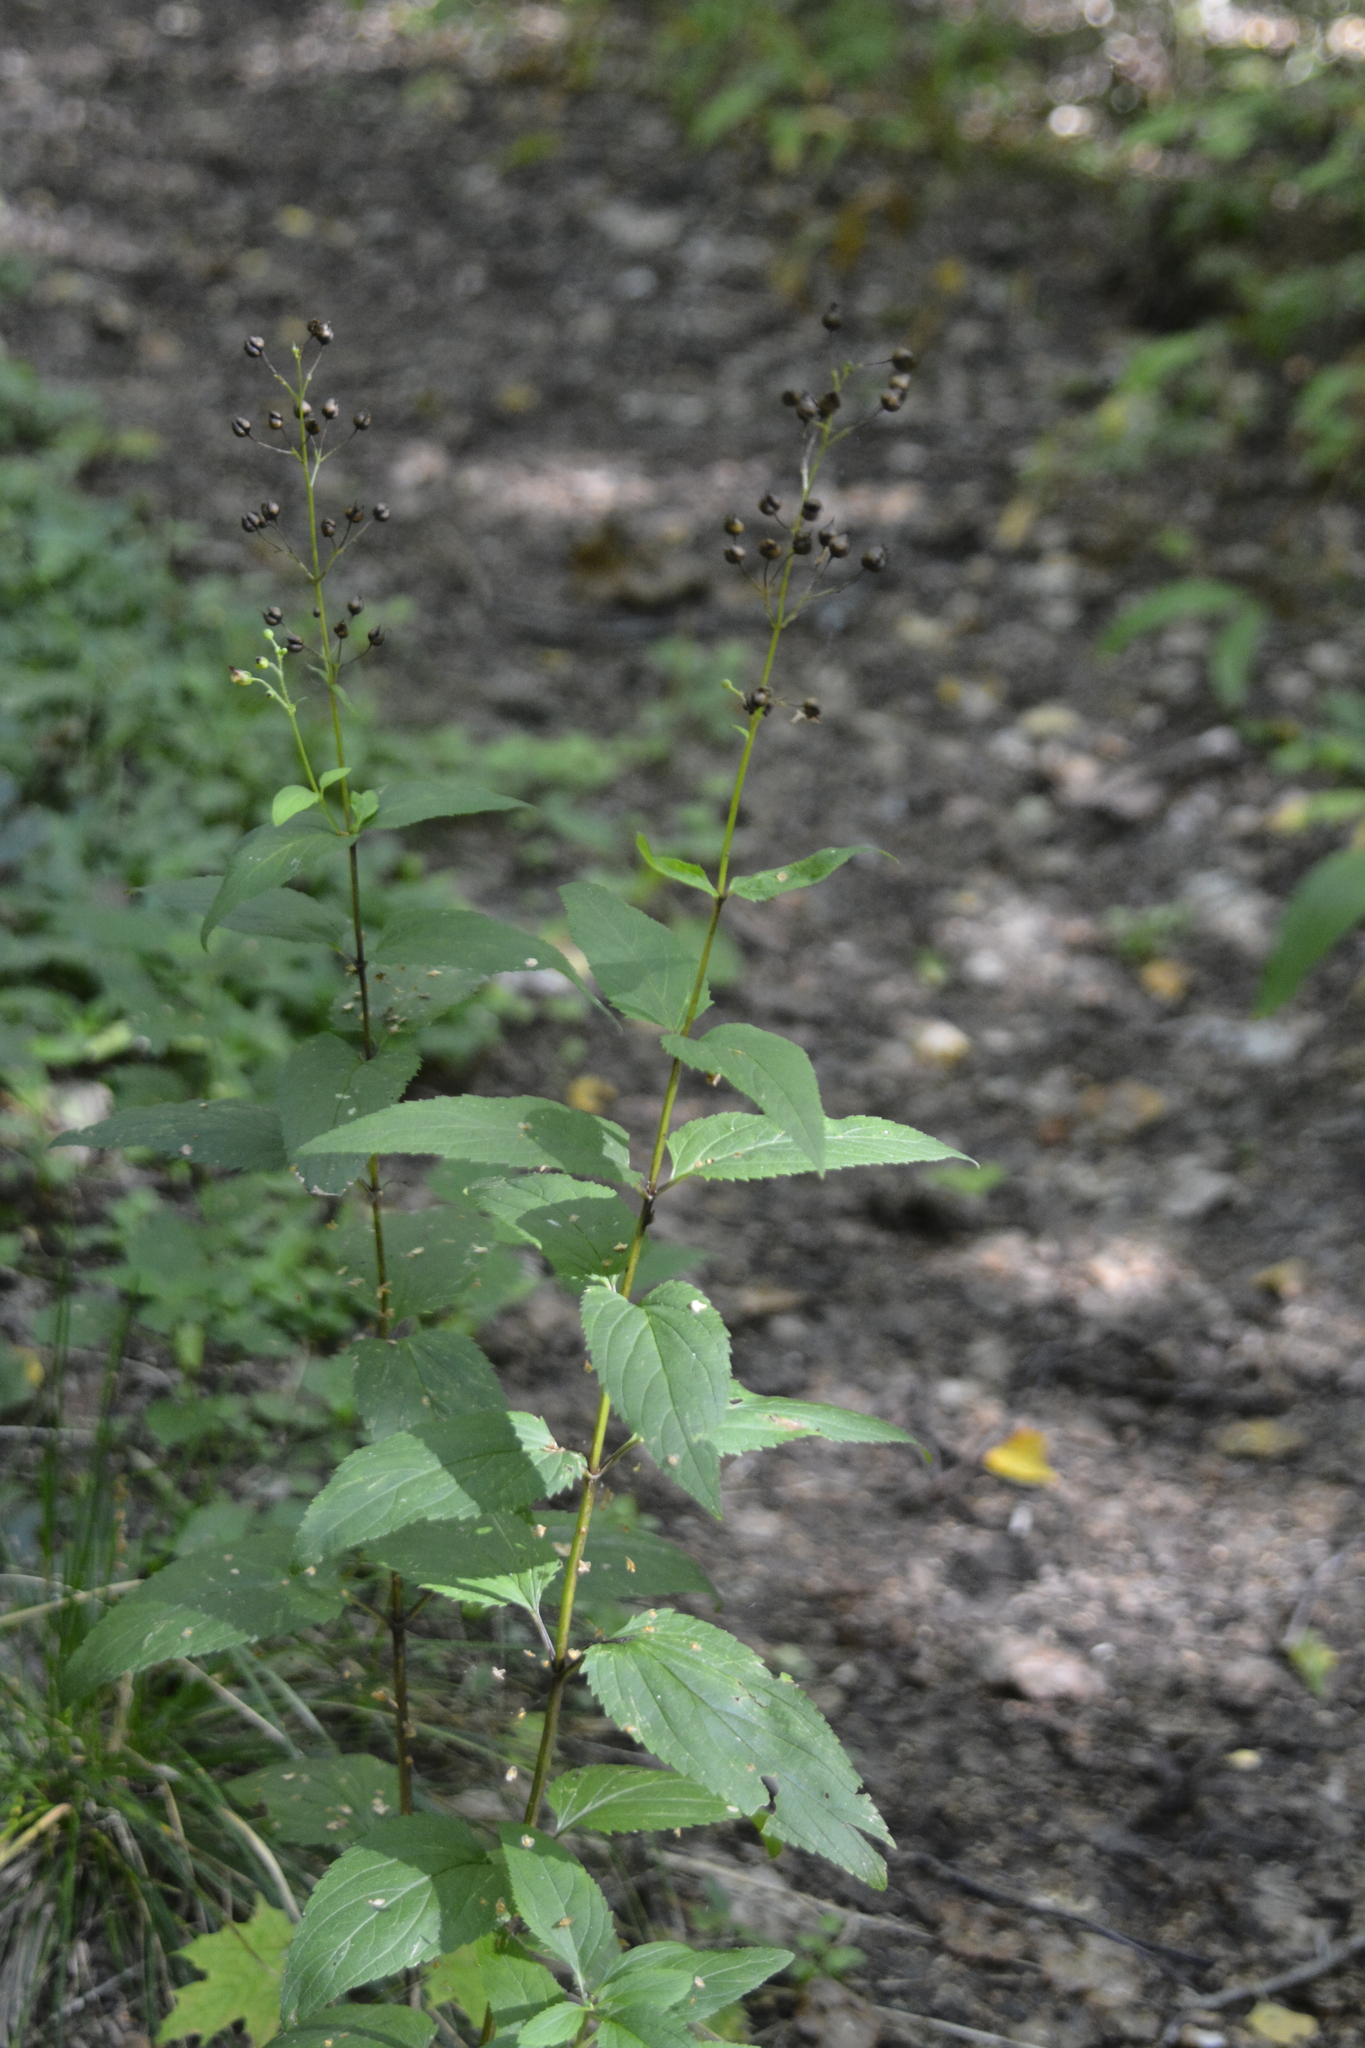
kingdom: Plantae
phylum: Tracheophyta
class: Magnoliopsida
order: Lamiales
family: Scrophulariaceae
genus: Scrophularia
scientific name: Scrophularia nodosa
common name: Common figwort
